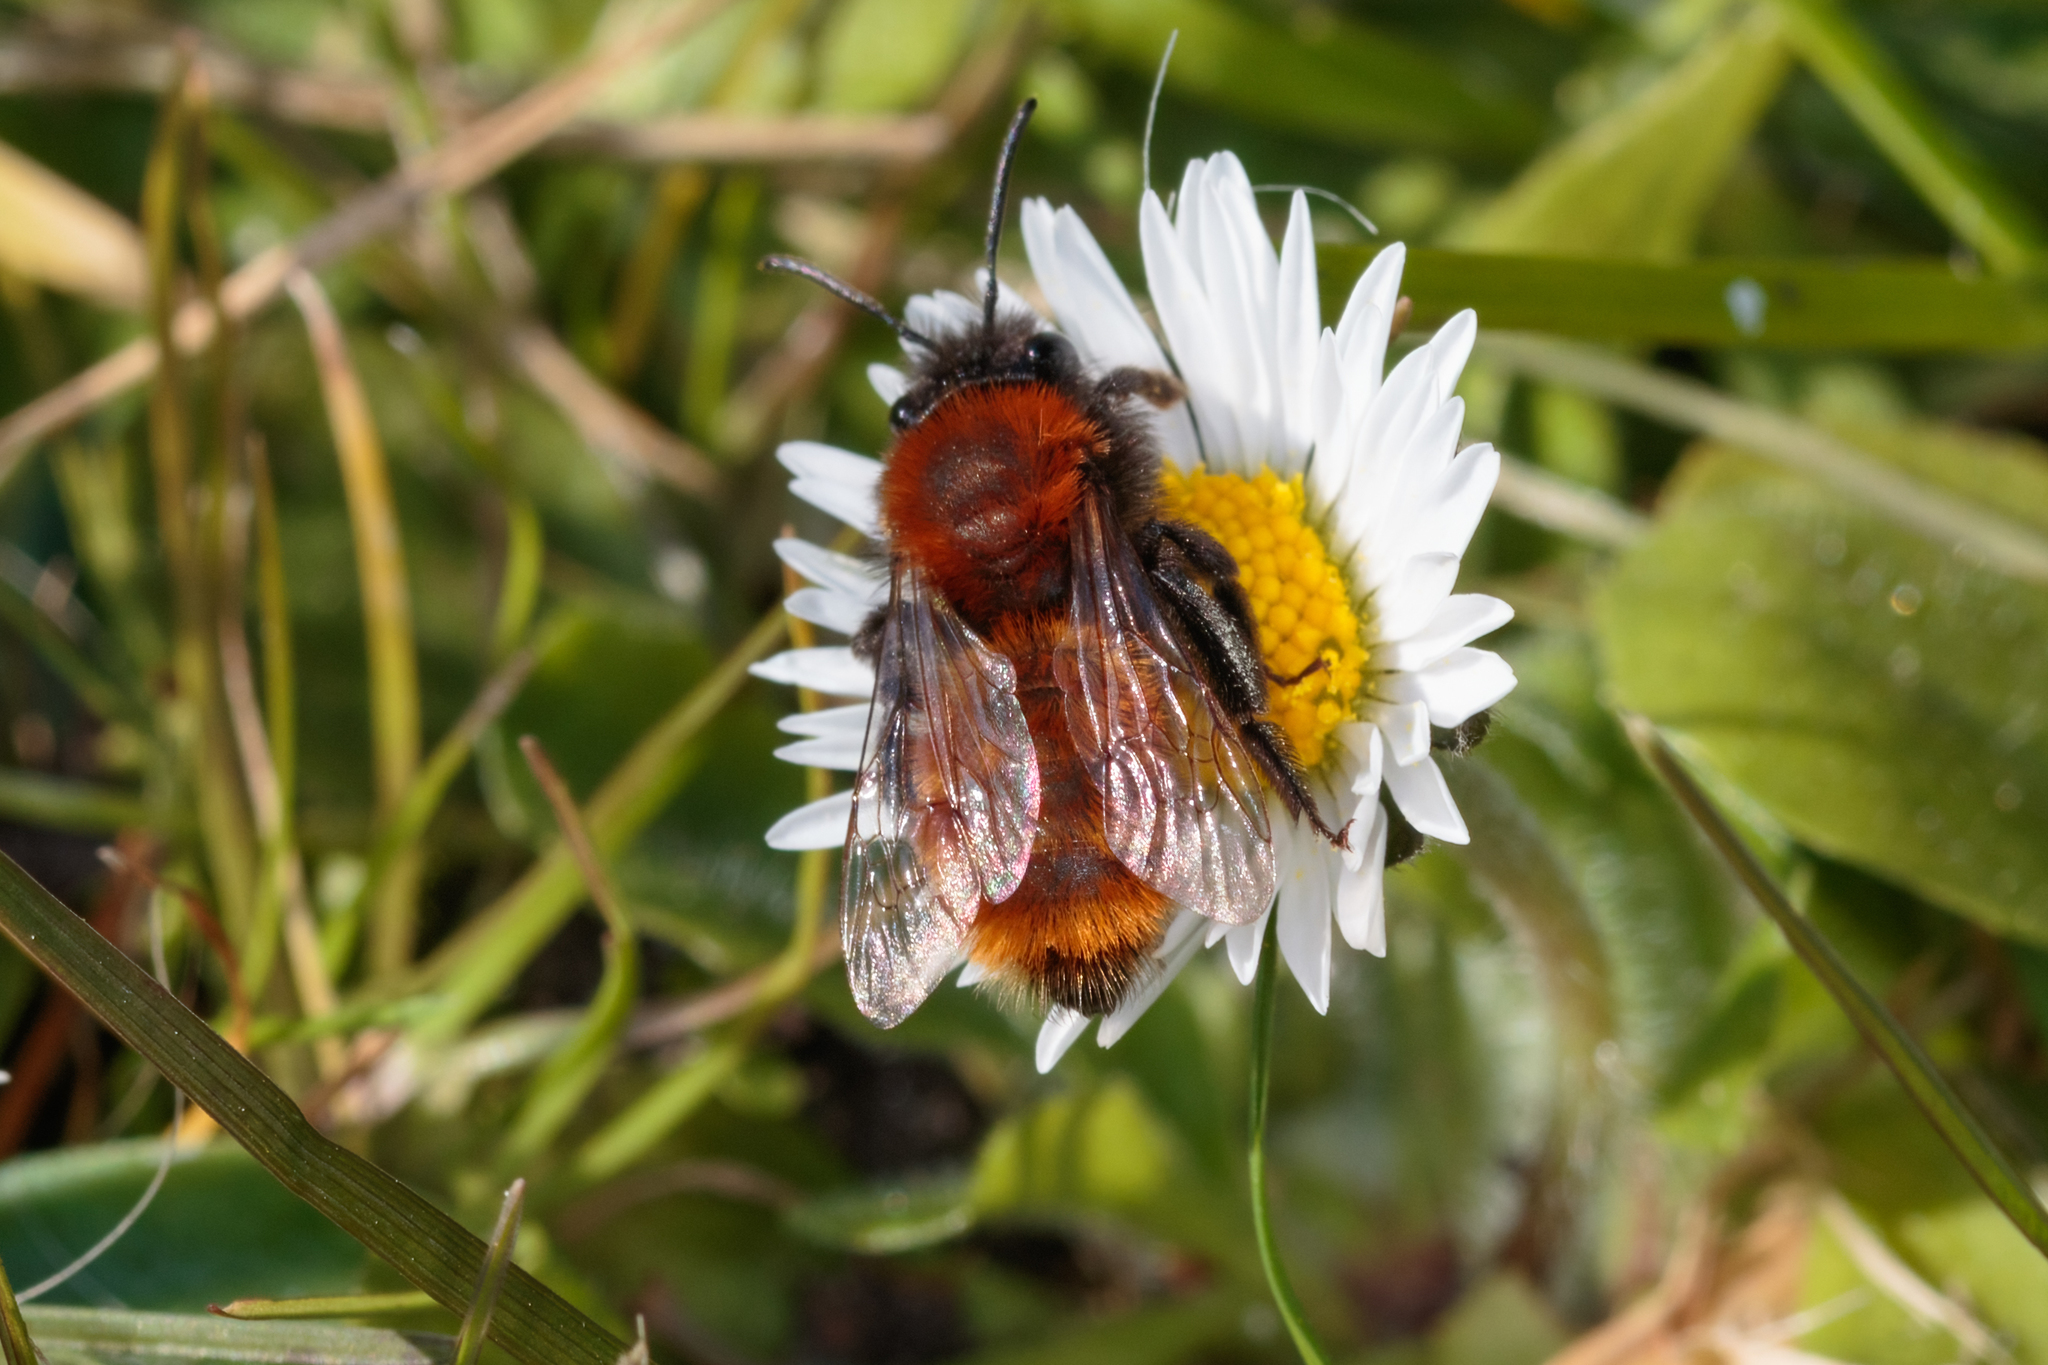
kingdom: Animalia
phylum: Arthropoda
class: Insecta
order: Hymenoptera
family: Andrenidae
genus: Andrena
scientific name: Andrena fulva
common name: Tawny mining bee
